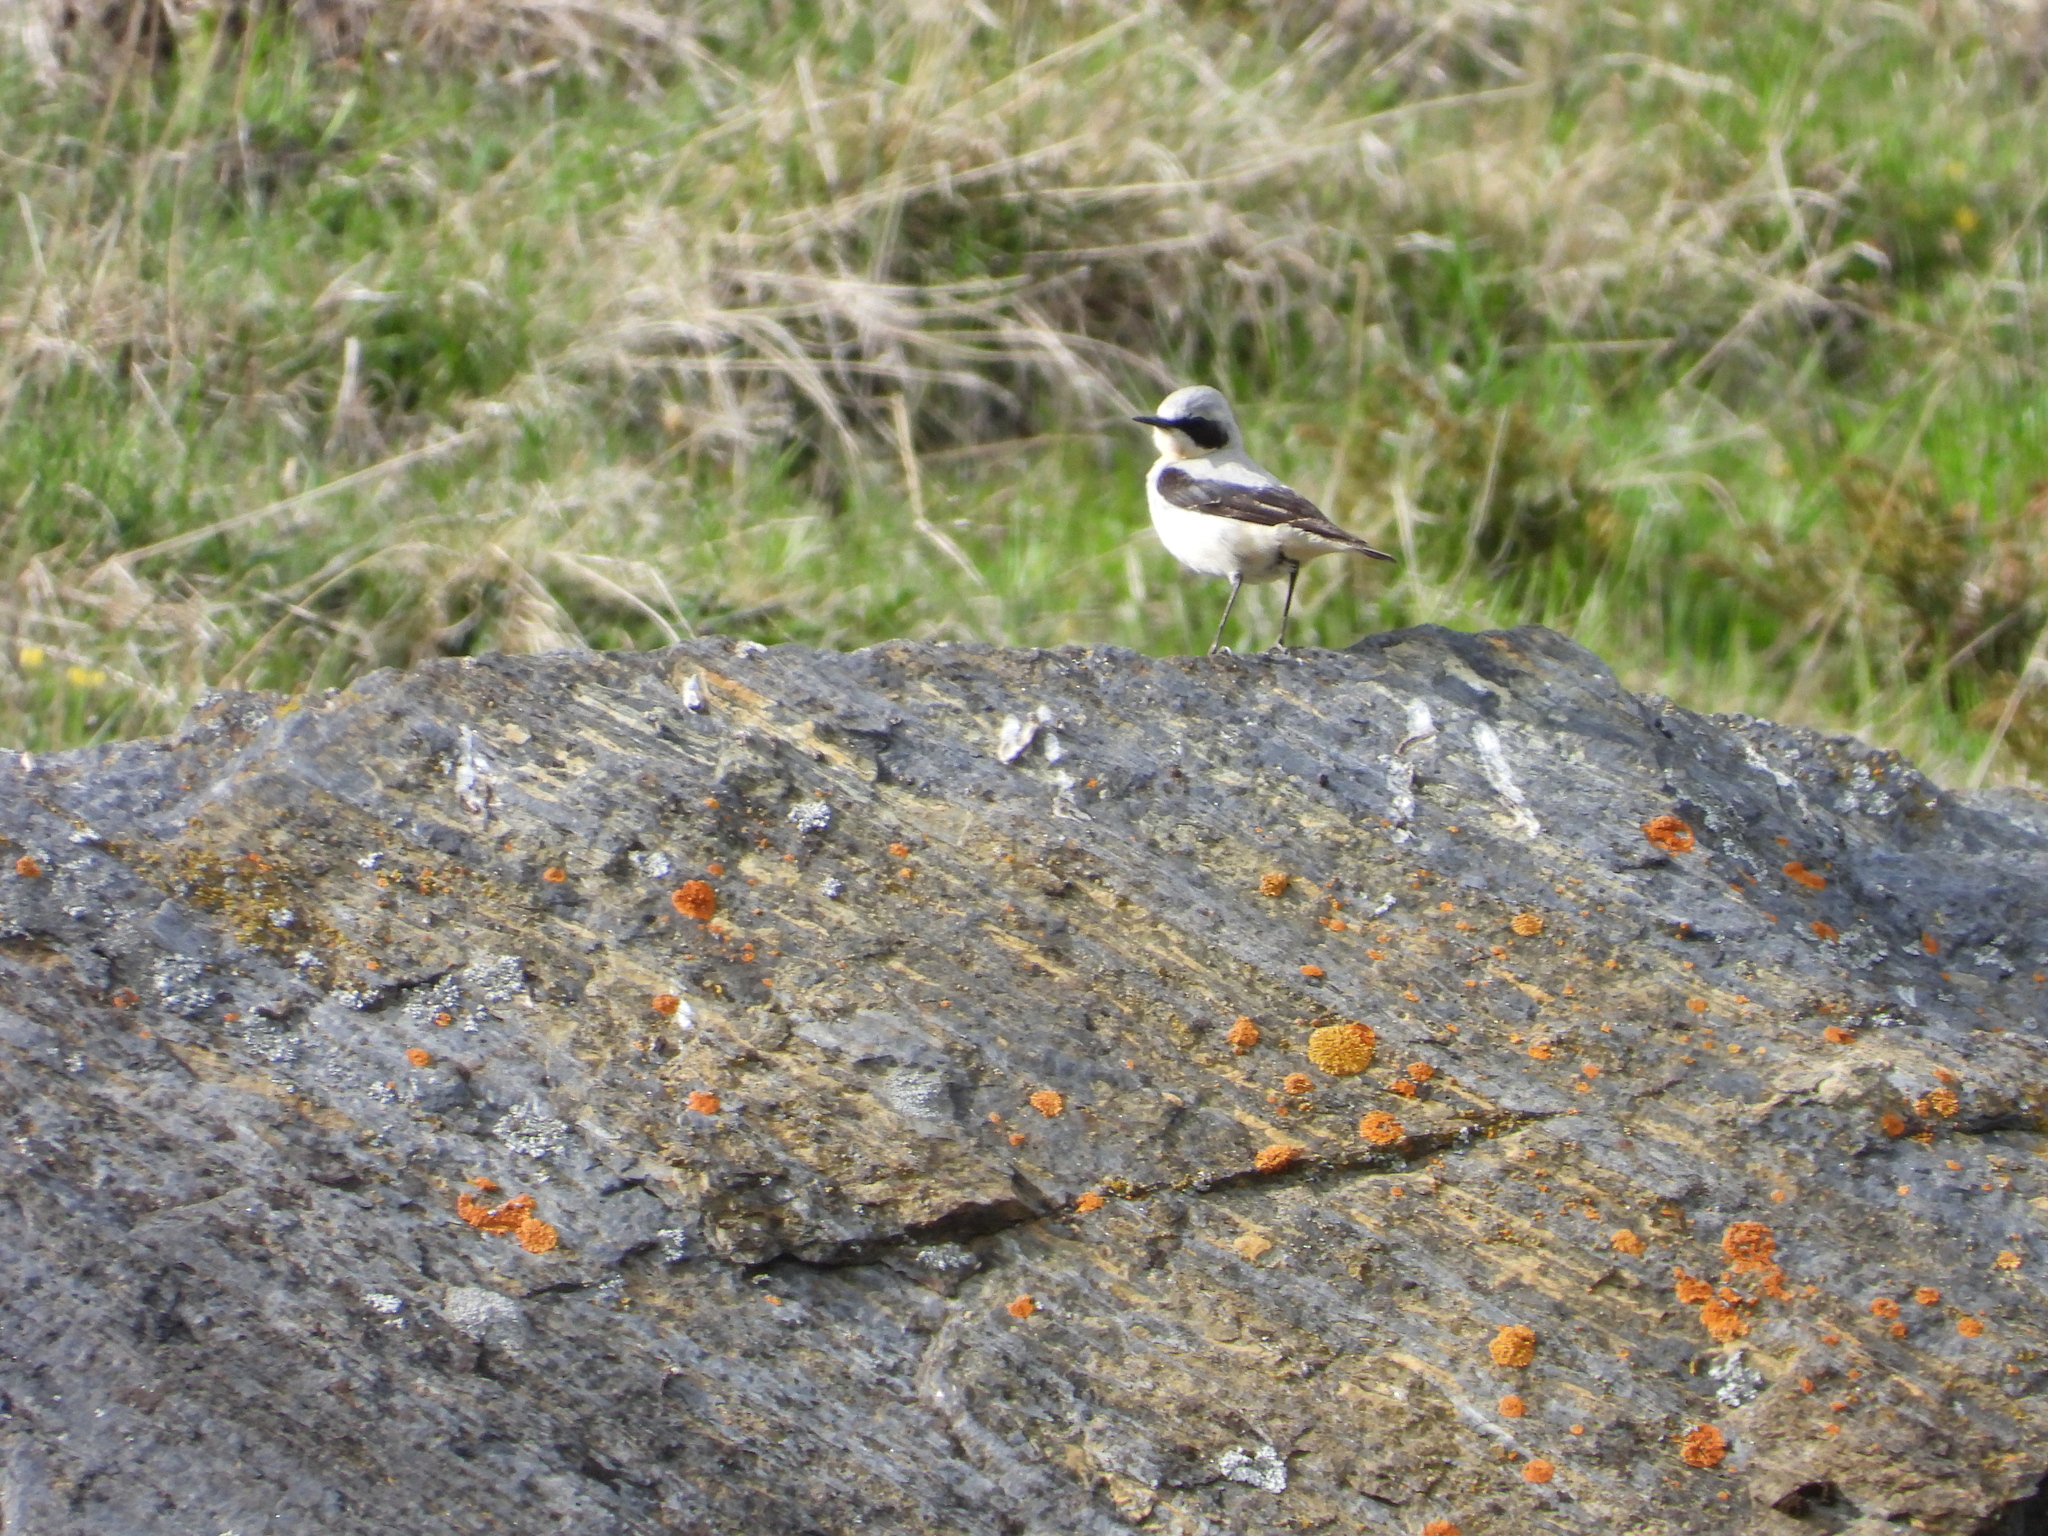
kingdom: Animalia
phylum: Chordata
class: Aves
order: Passeriformes
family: Muscicapidae
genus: Oenanthe
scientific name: Oenanthe oenanthe
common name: Northern wheatear
